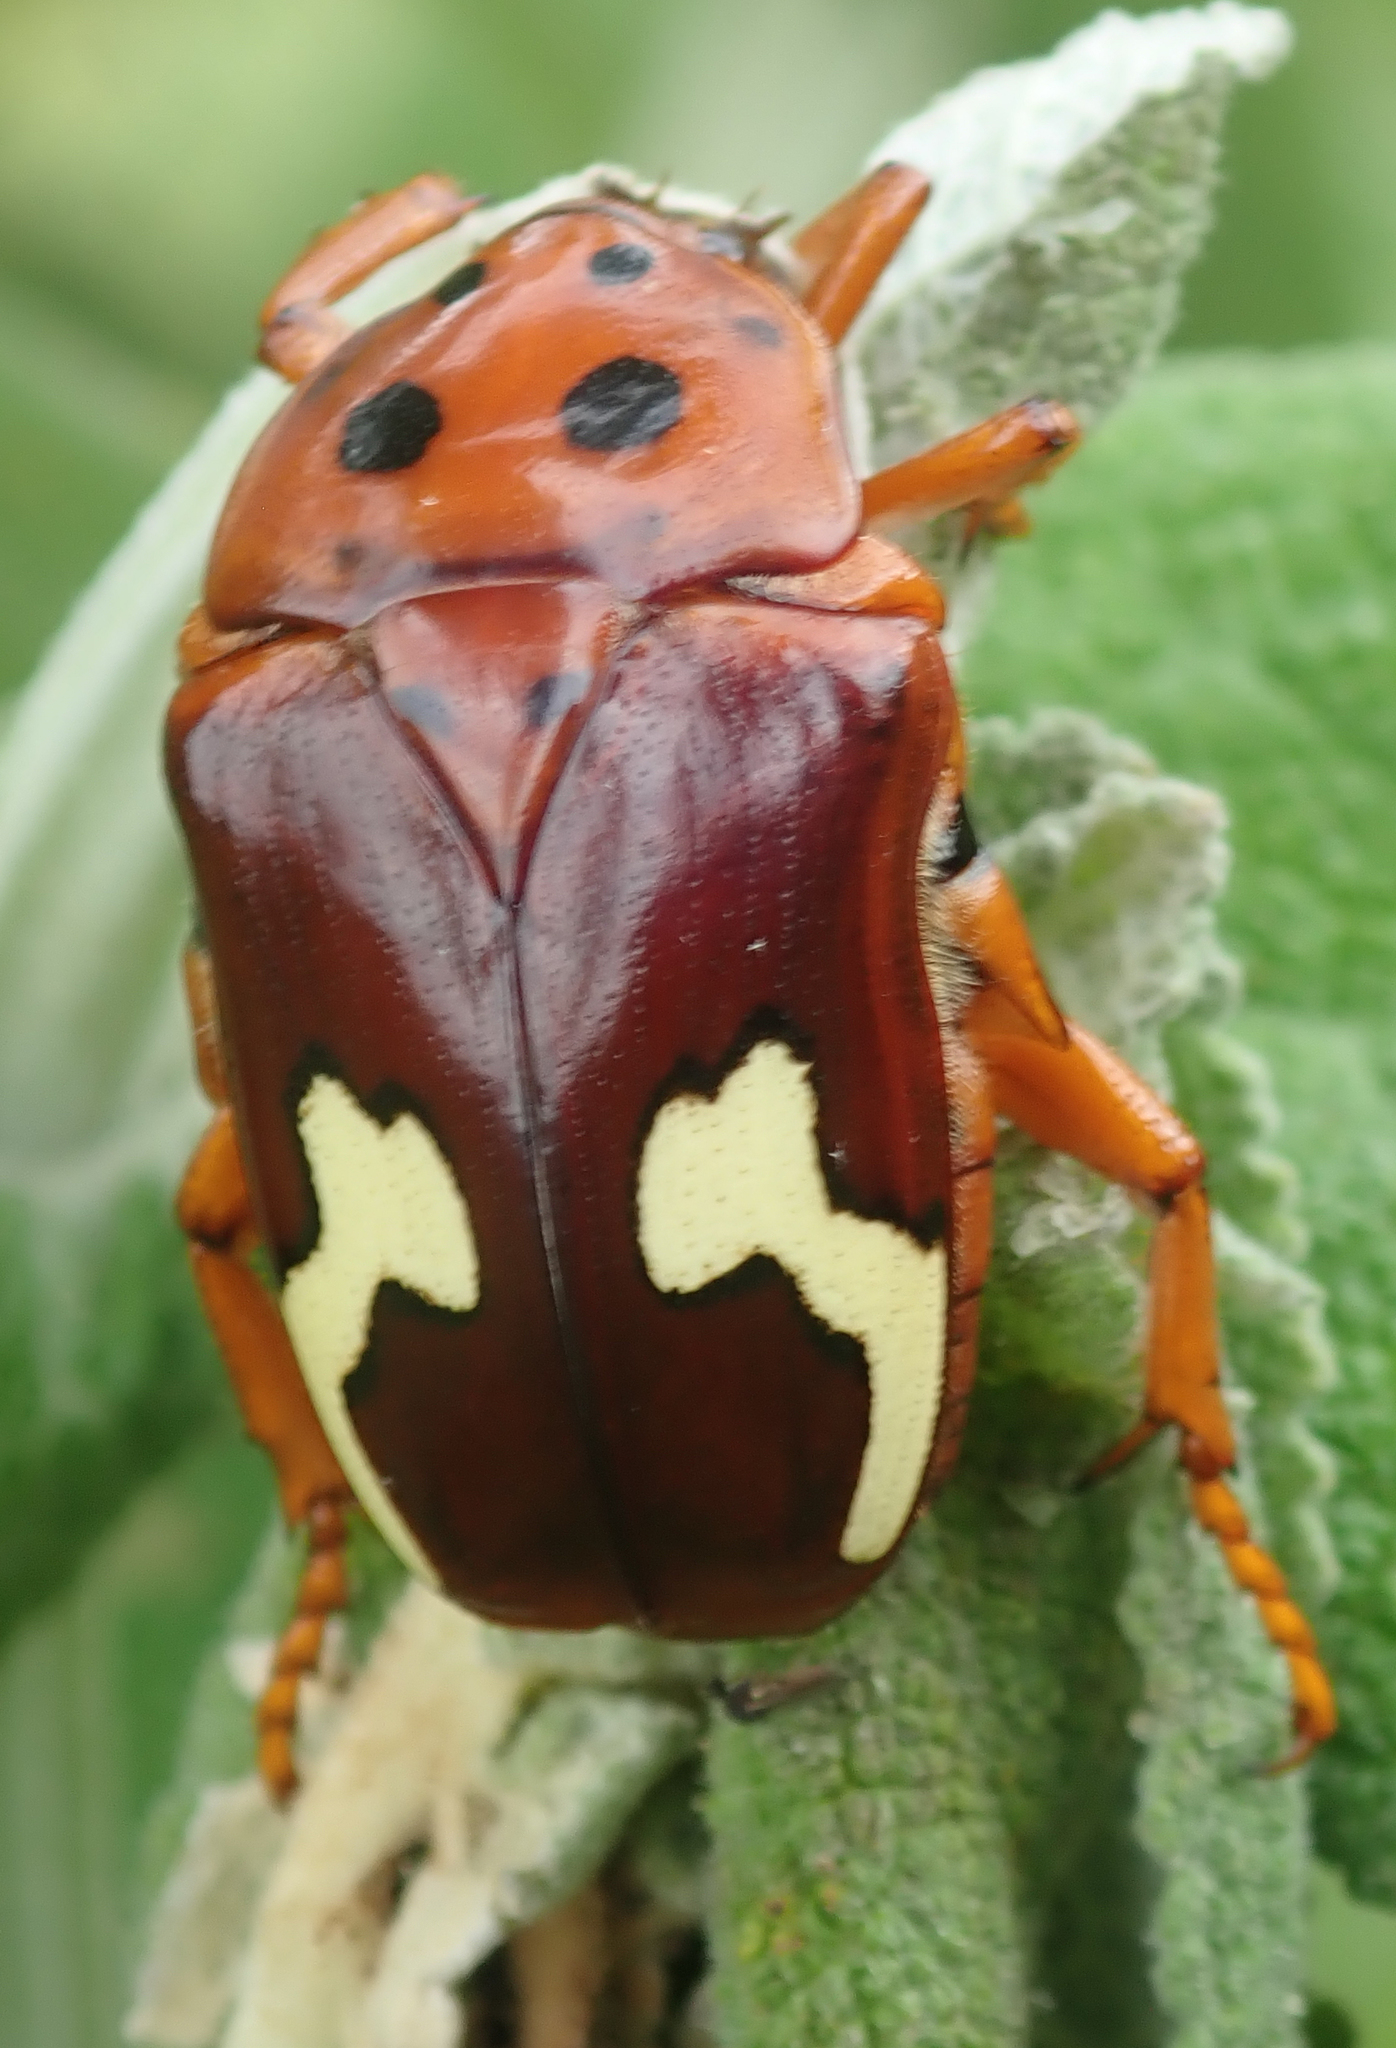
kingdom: Animalia
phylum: Arthropoda
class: Insecta
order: Coleoptera
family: Scarabaeidae
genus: Anisorrhina
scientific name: Anisorrhina flavomaculata
